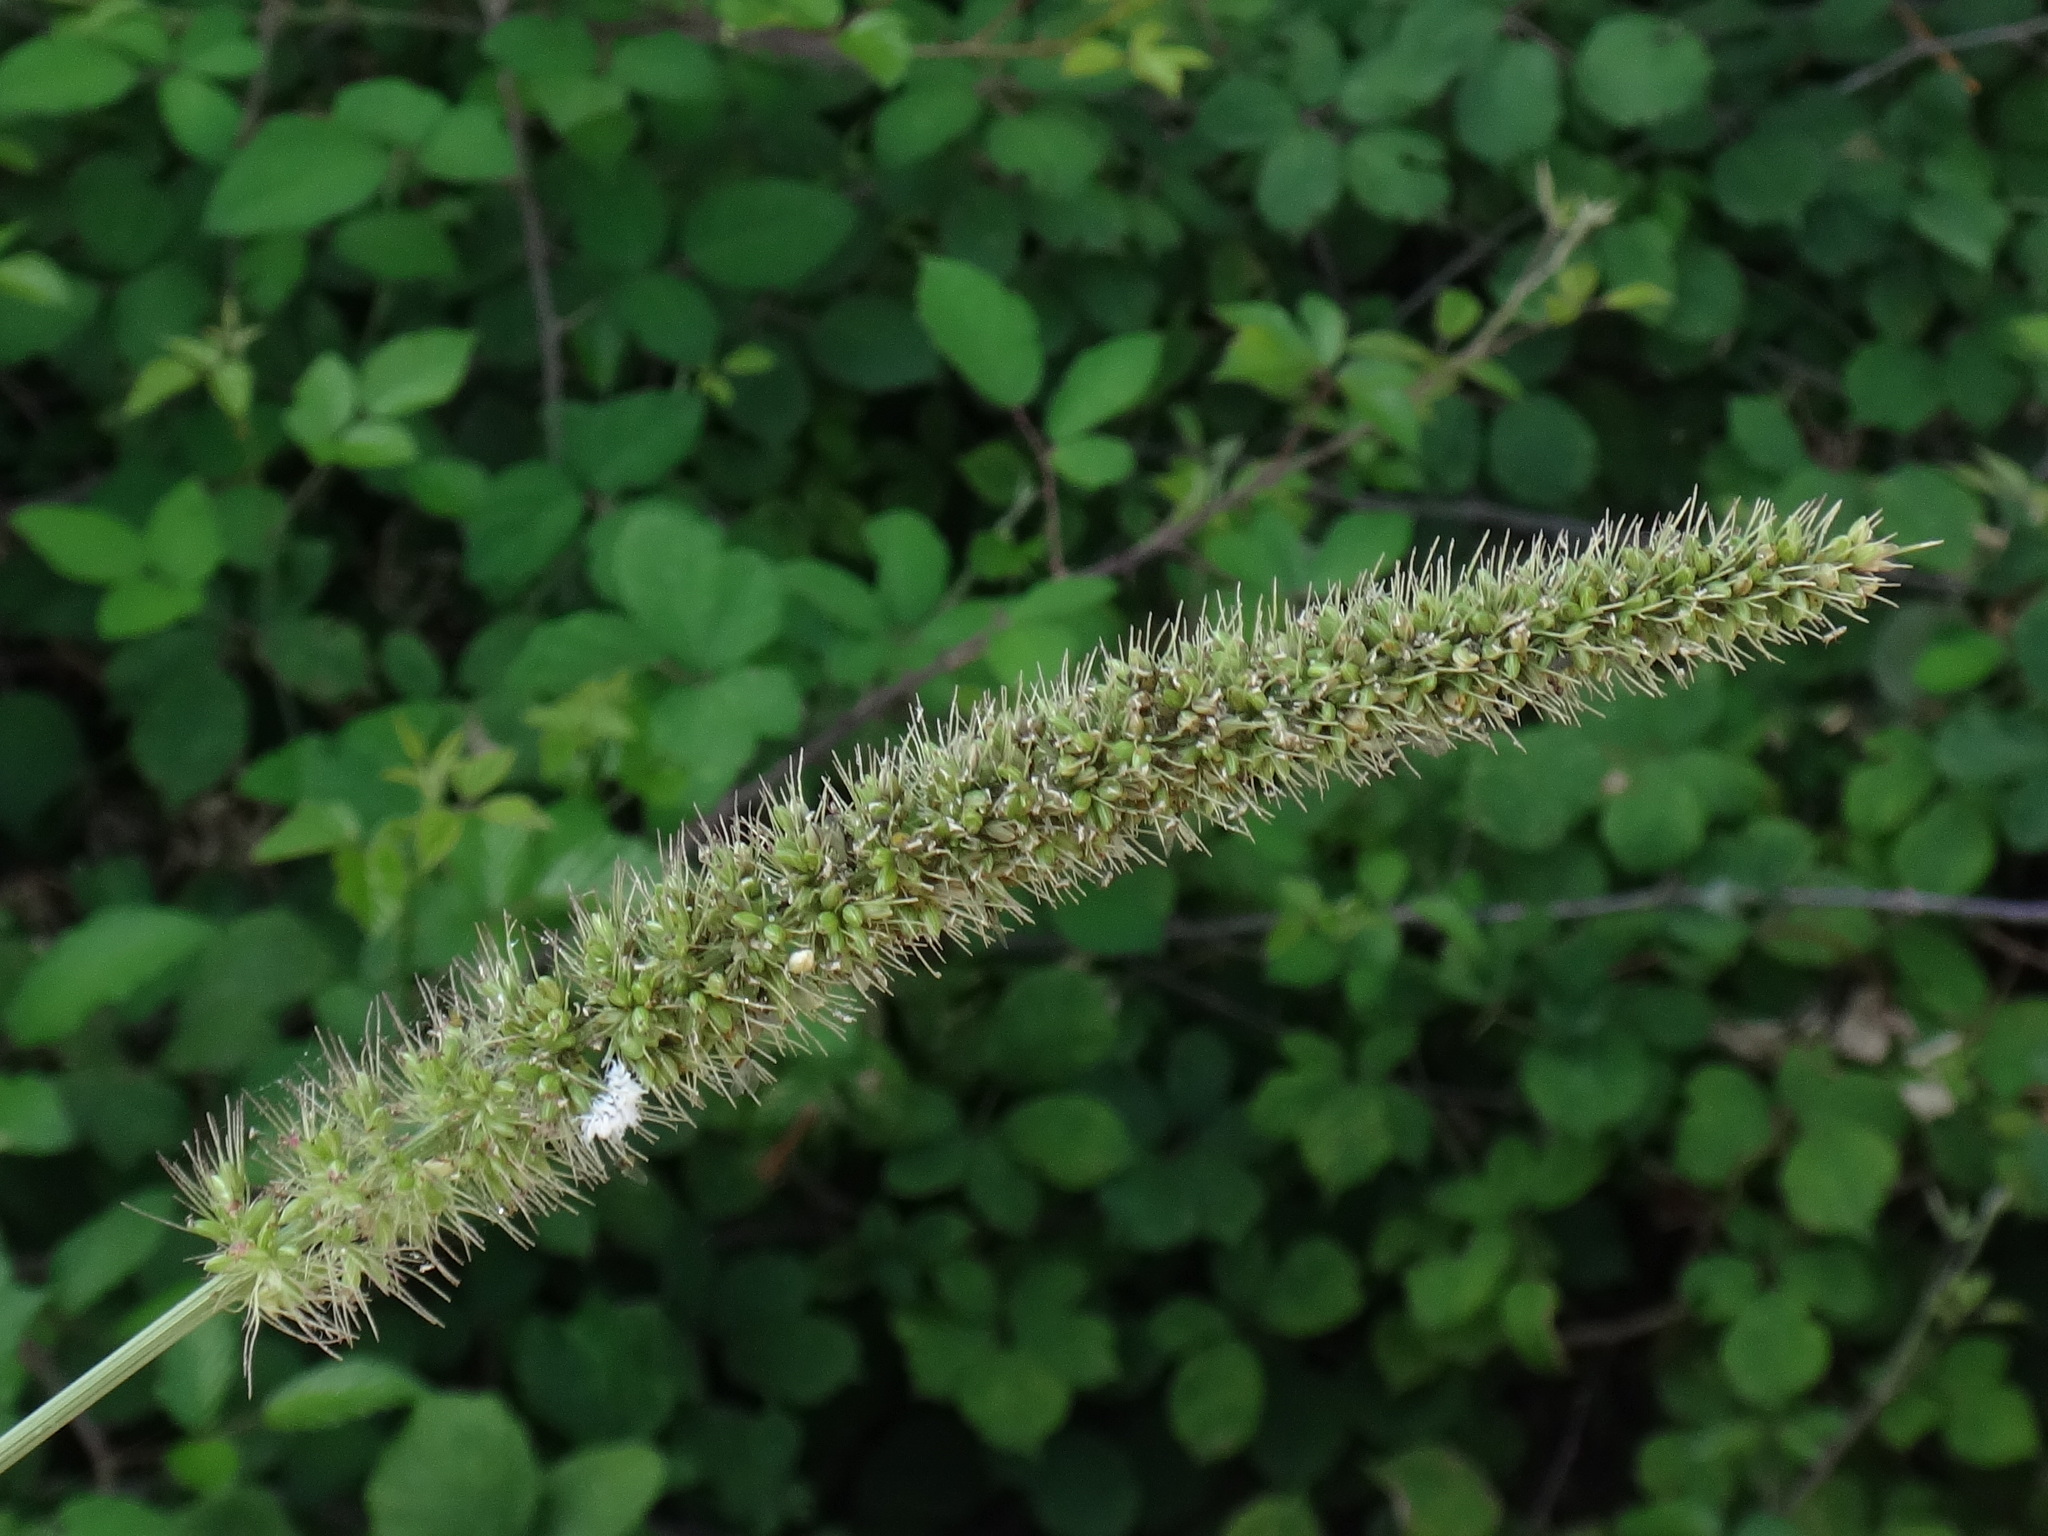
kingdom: Plantae
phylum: Tracheophyta
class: Liliopsida
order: Poales
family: Poaceae
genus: Setaria
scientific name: Setaria verticillata
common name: Hooked bristlegrass
